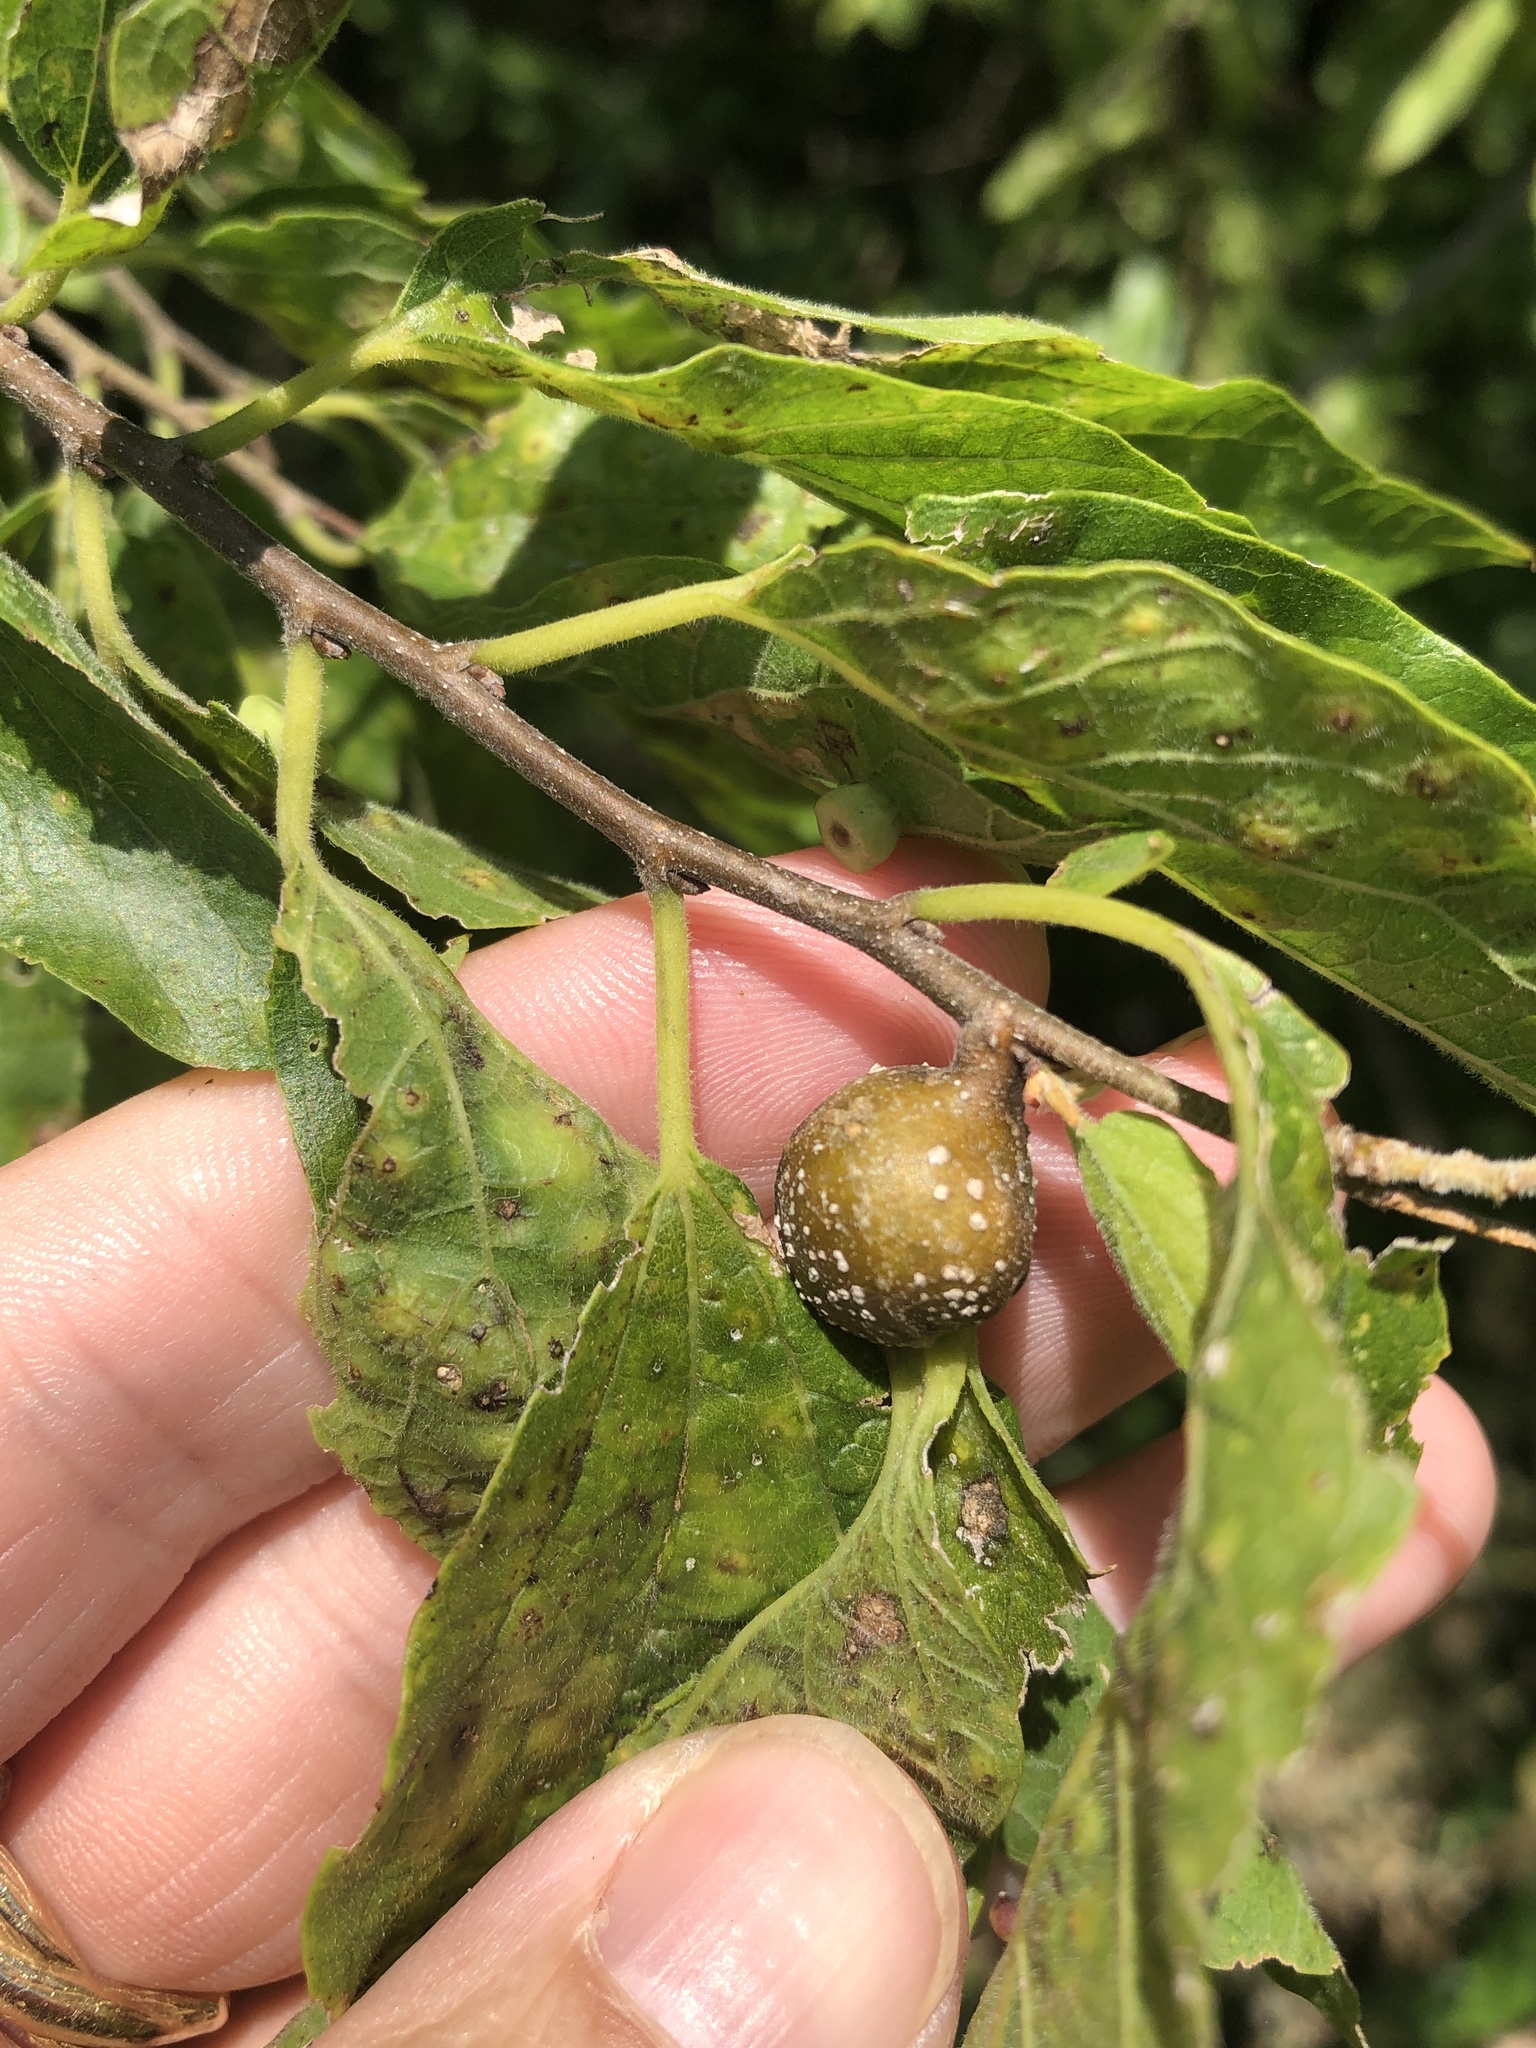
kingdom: Animalia
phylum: Arthropoda
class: Insecta
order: Hemiptera
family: Aphalaridae
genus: Pachypsylla
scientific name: Pachypsylla venusta
